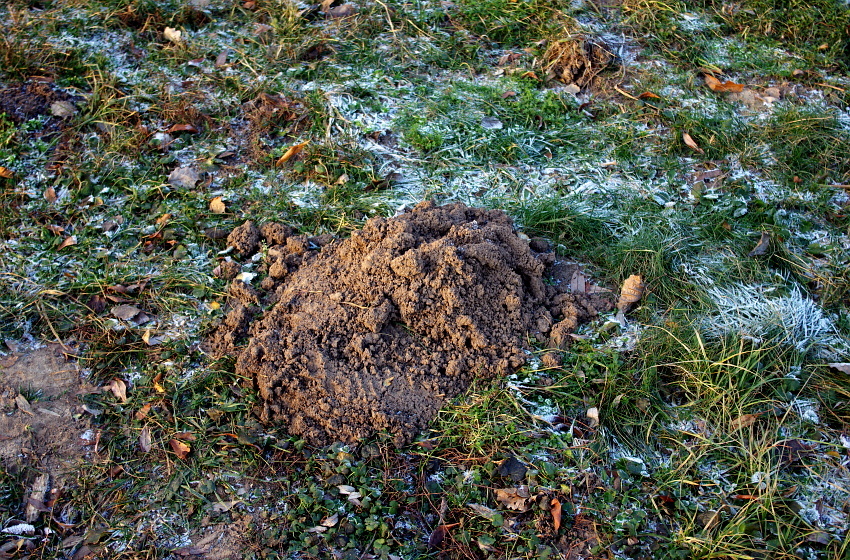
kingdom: Animalia
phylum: Chordata
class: Mammalia
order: Soricomorpha
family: Talpidae
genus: Talpa
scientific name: Talpa europaea
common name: European mole
